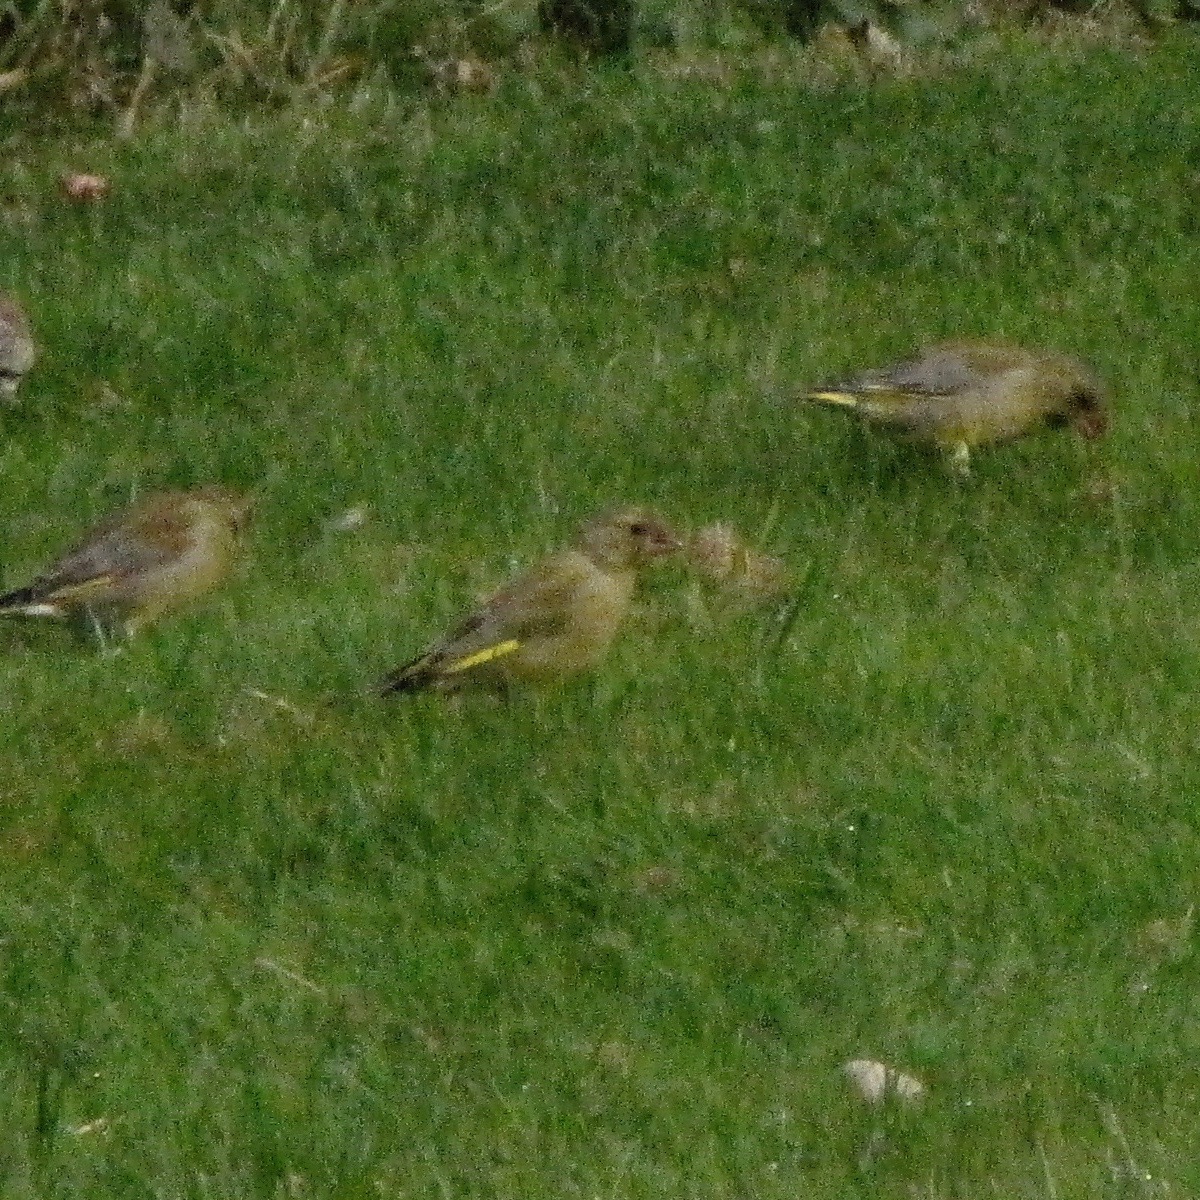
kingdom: Plantae
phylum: Tracheophyta
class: Liliopsida
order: Poales
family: Poaceae
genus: Chloris
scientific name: Chloris chloris
